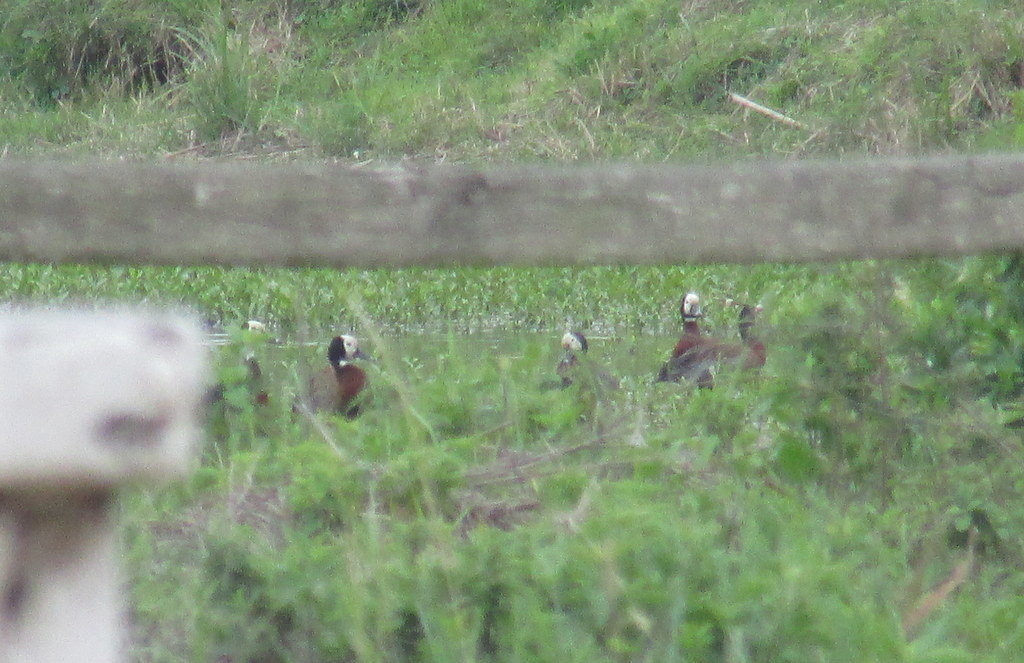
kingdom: Animalia
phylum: Chordata
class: Aves
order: Anseriformes
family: Anatidae
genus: Dendrocygna
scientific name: Dendrocygna viduata
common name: White-faced whistling duck
